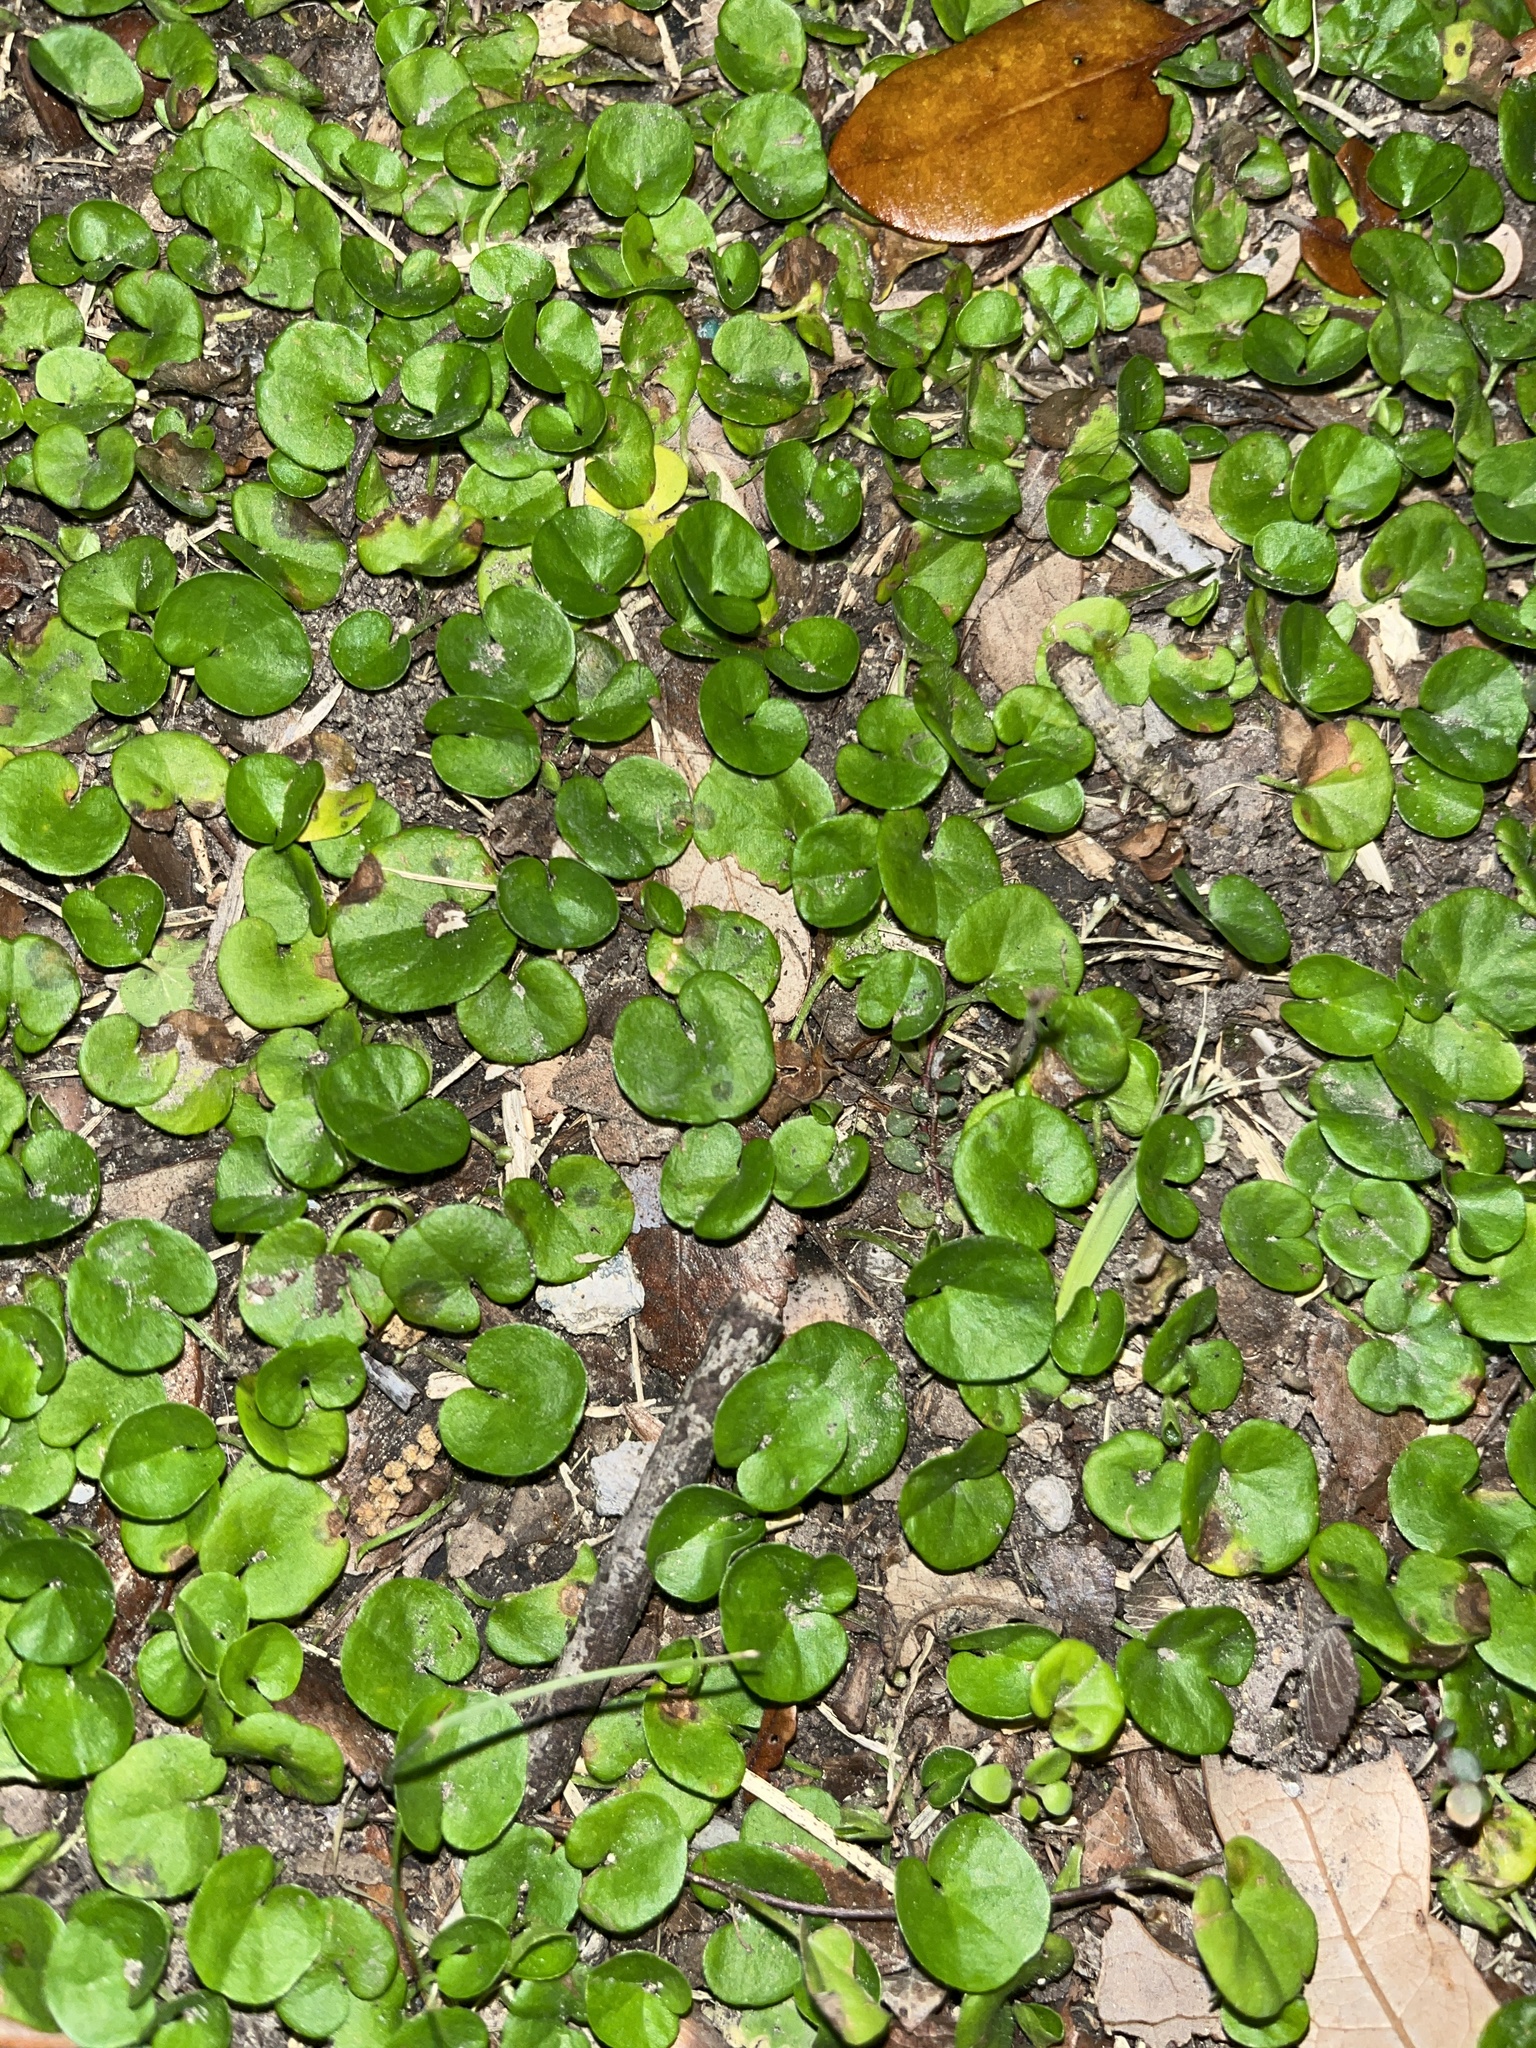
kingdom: Plantae
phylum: Tracheophyta
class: Magnoliopsida
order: Solanales
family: Convolvulaceae
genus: Dichondra
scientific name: Dichondra carolinensis
